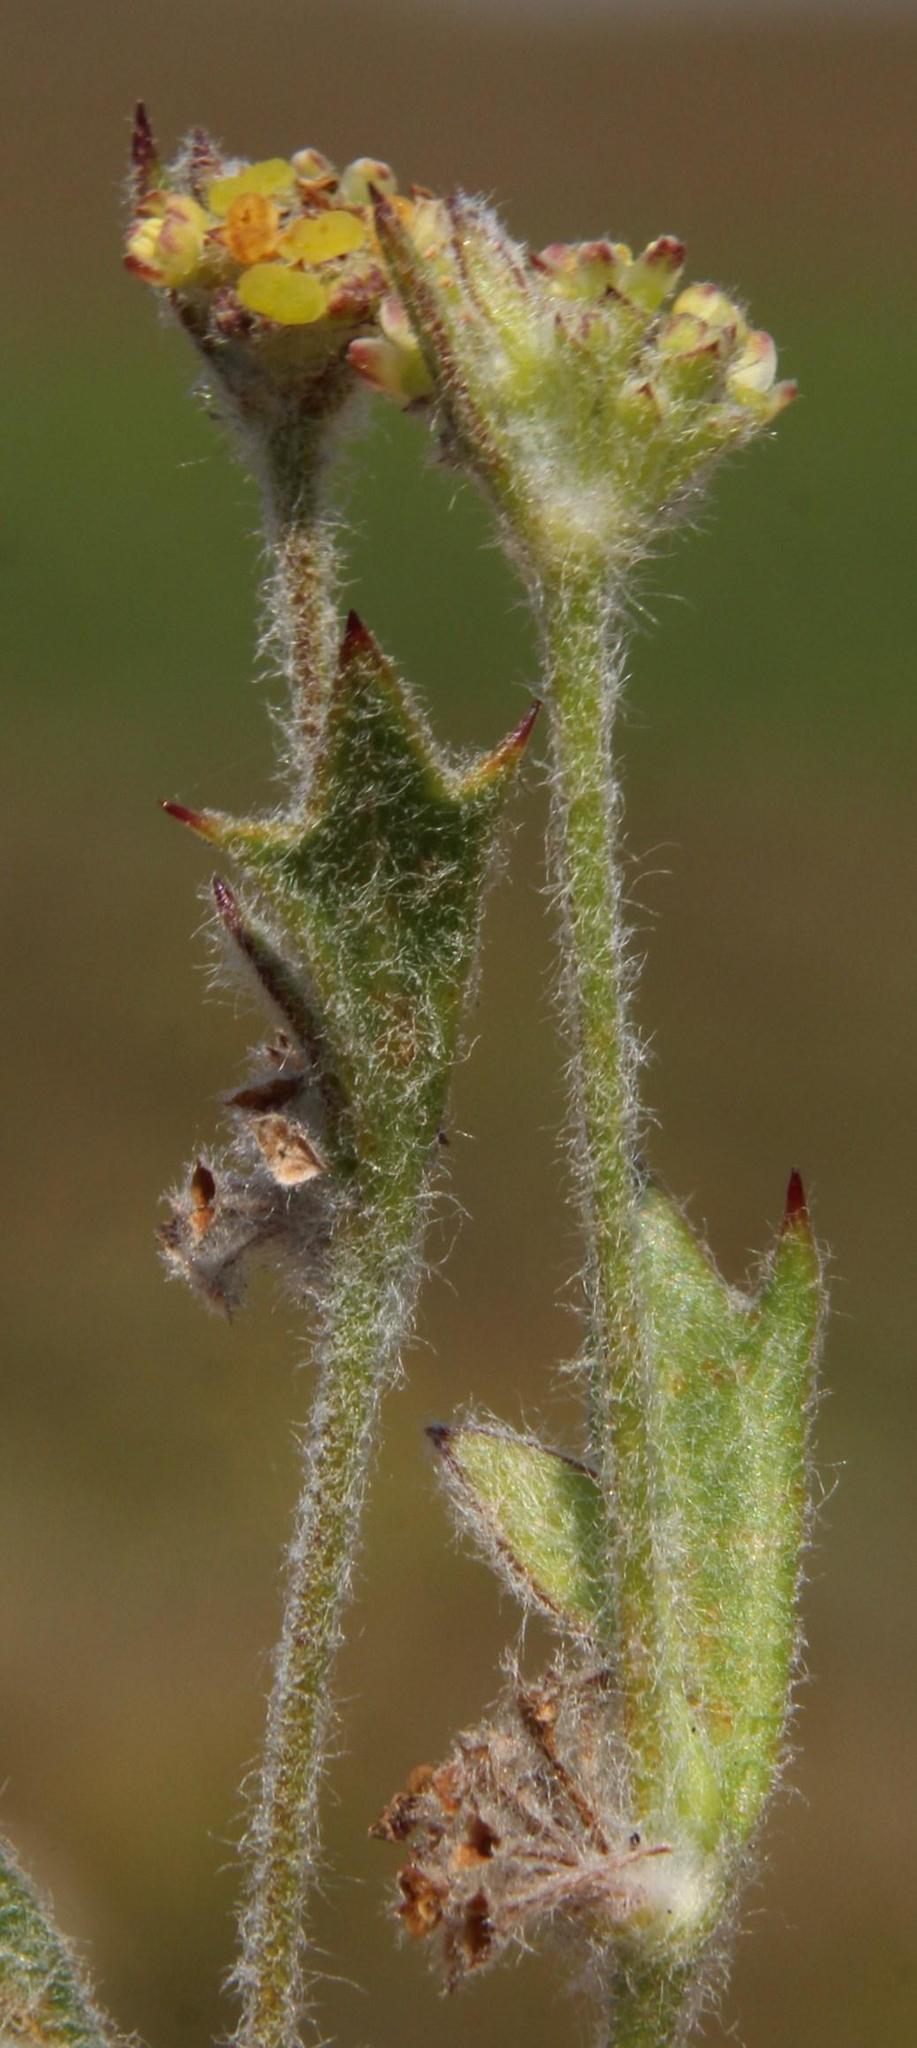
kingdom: Plantae
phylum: Tracheophyta
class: Magnoliopsida
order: Apiales
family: Apiaceae
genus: Centella
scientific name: Centella difformis
